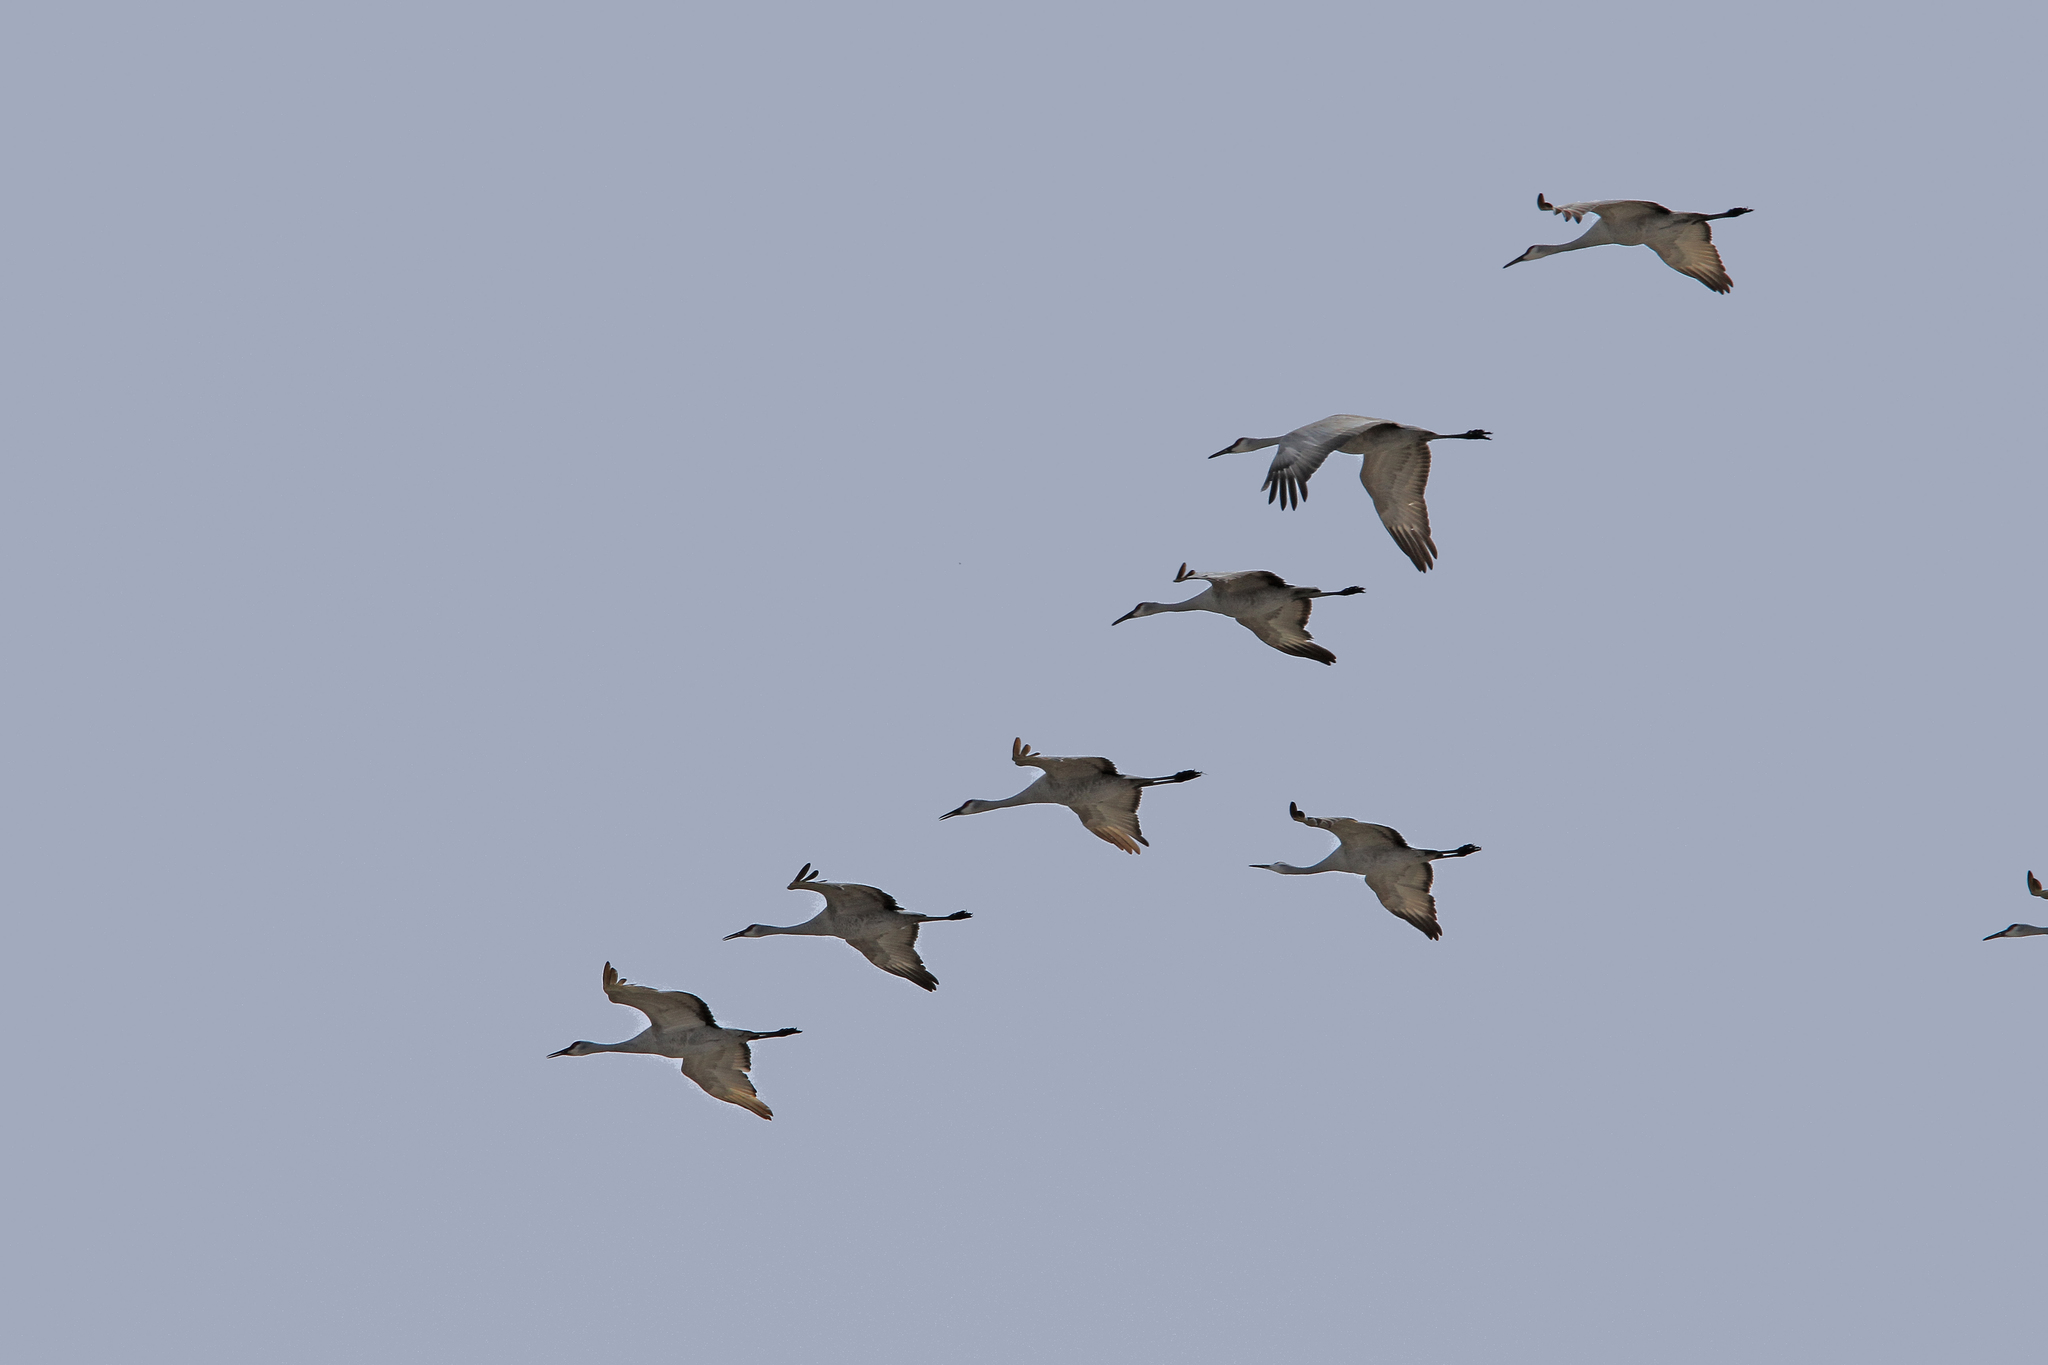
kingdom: Animalia
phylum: Chordata
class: Aves
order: Gruiformes
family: Gruidae
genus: Grus
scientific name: Grus canadensis
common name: Sandhill crane
